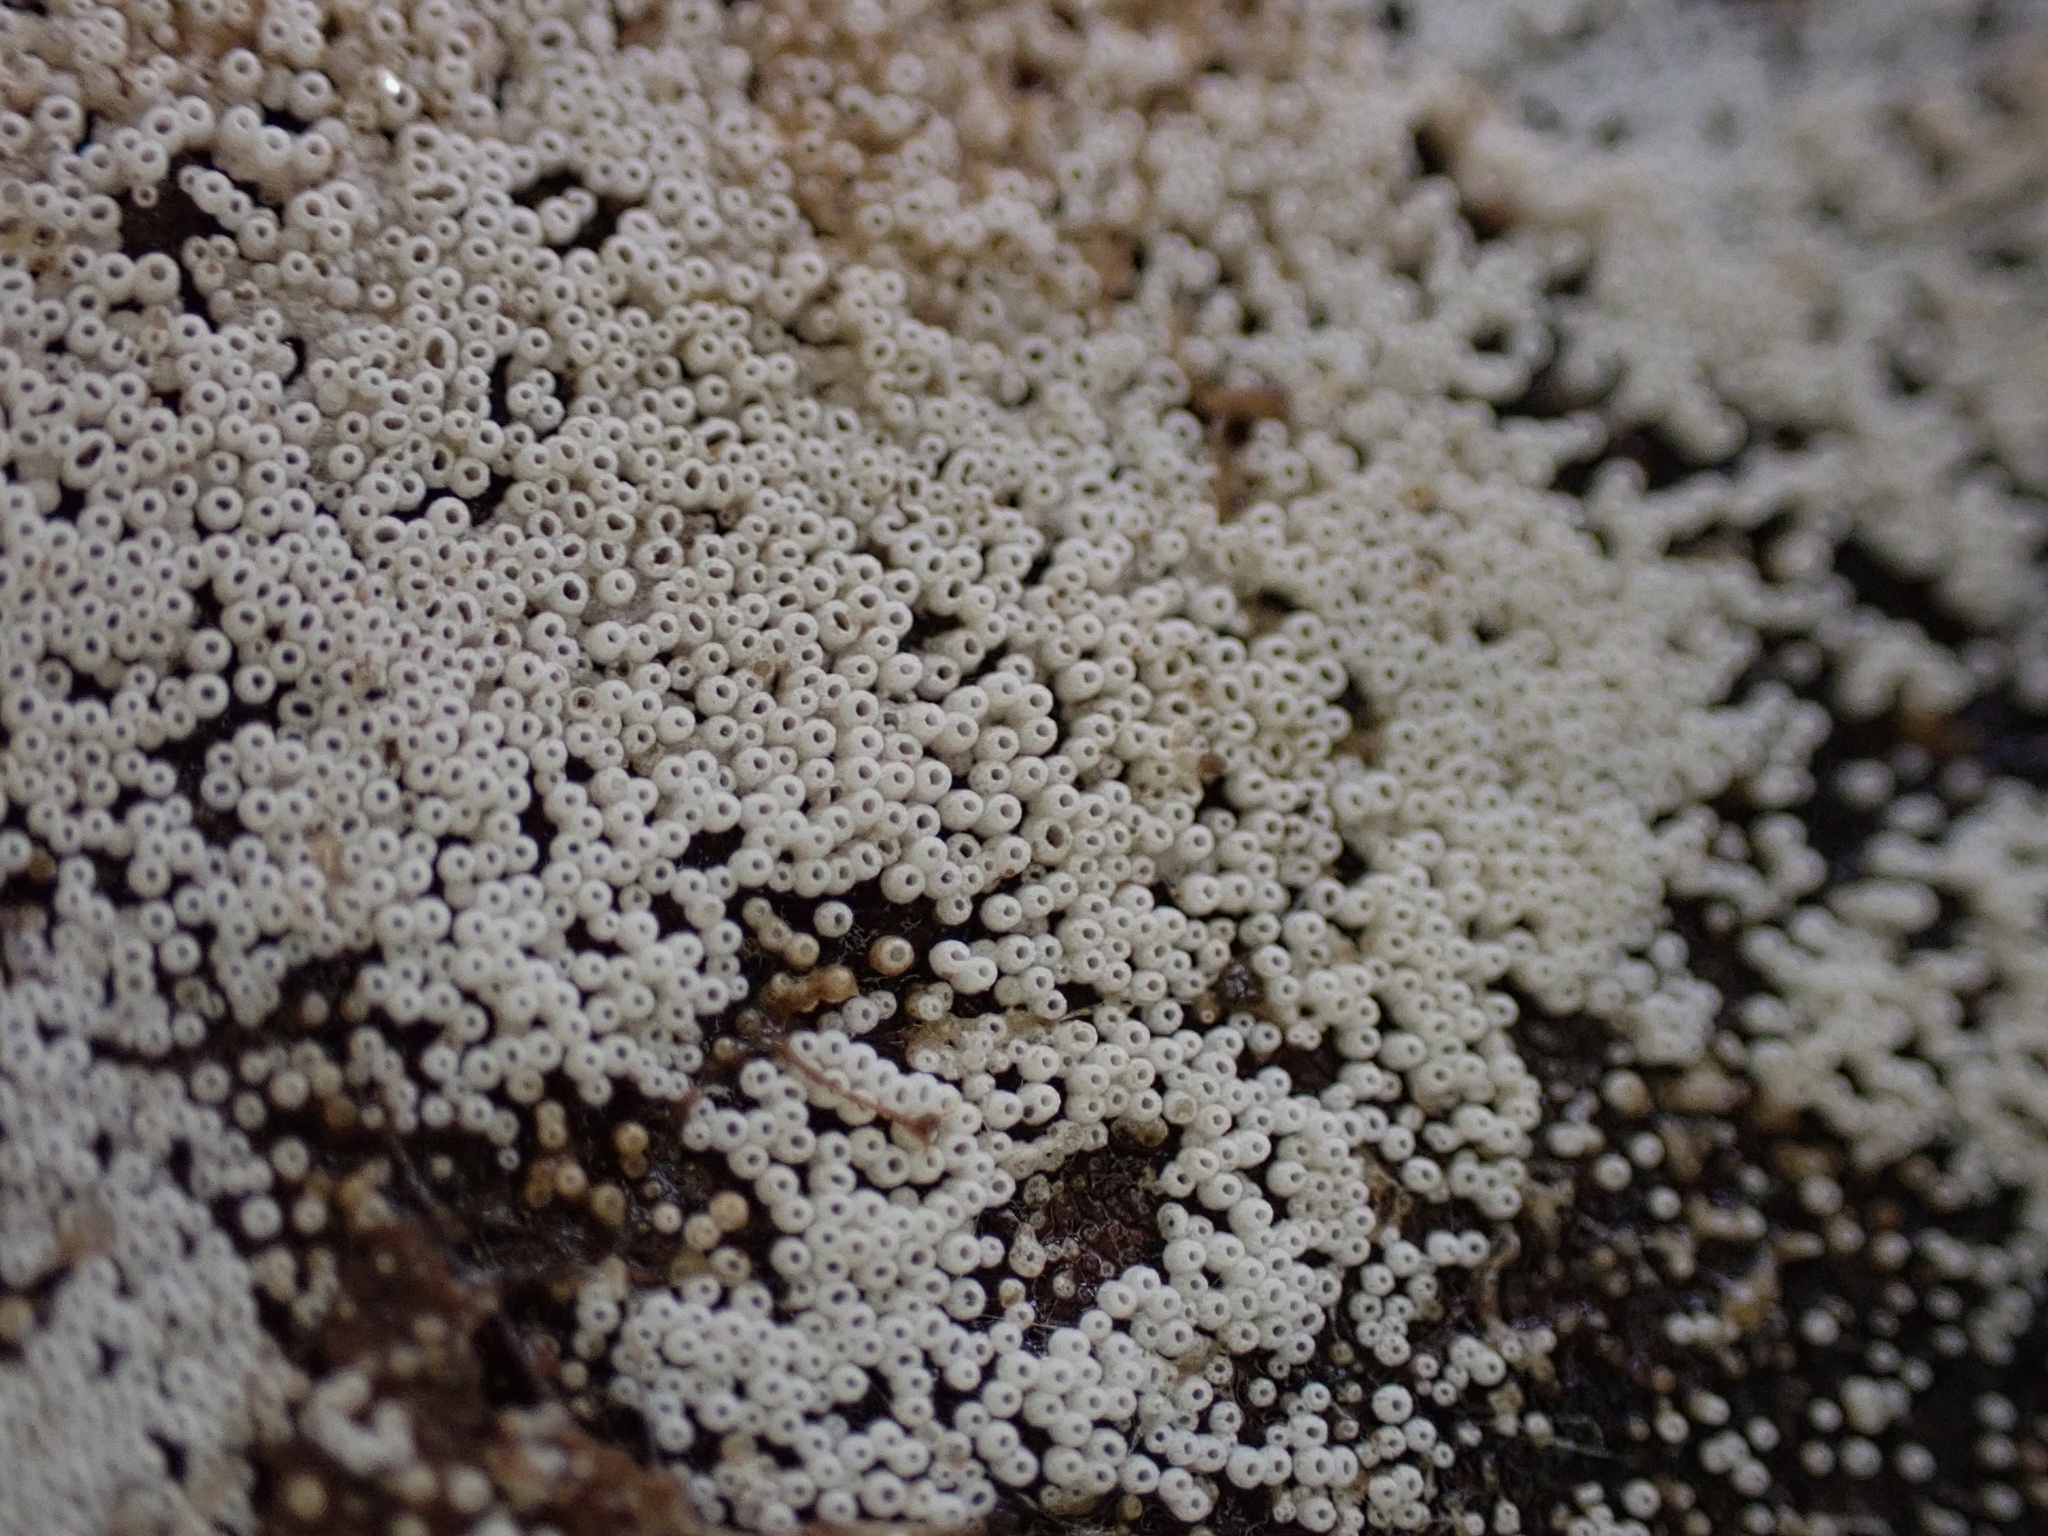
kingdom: Fungi
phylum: Basidiomycota
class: Agaricomycetes
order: Agaricales
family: Marasmiaceae
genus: Henningsomyces
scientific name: Henningsomyces candidus
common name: White tubelet
